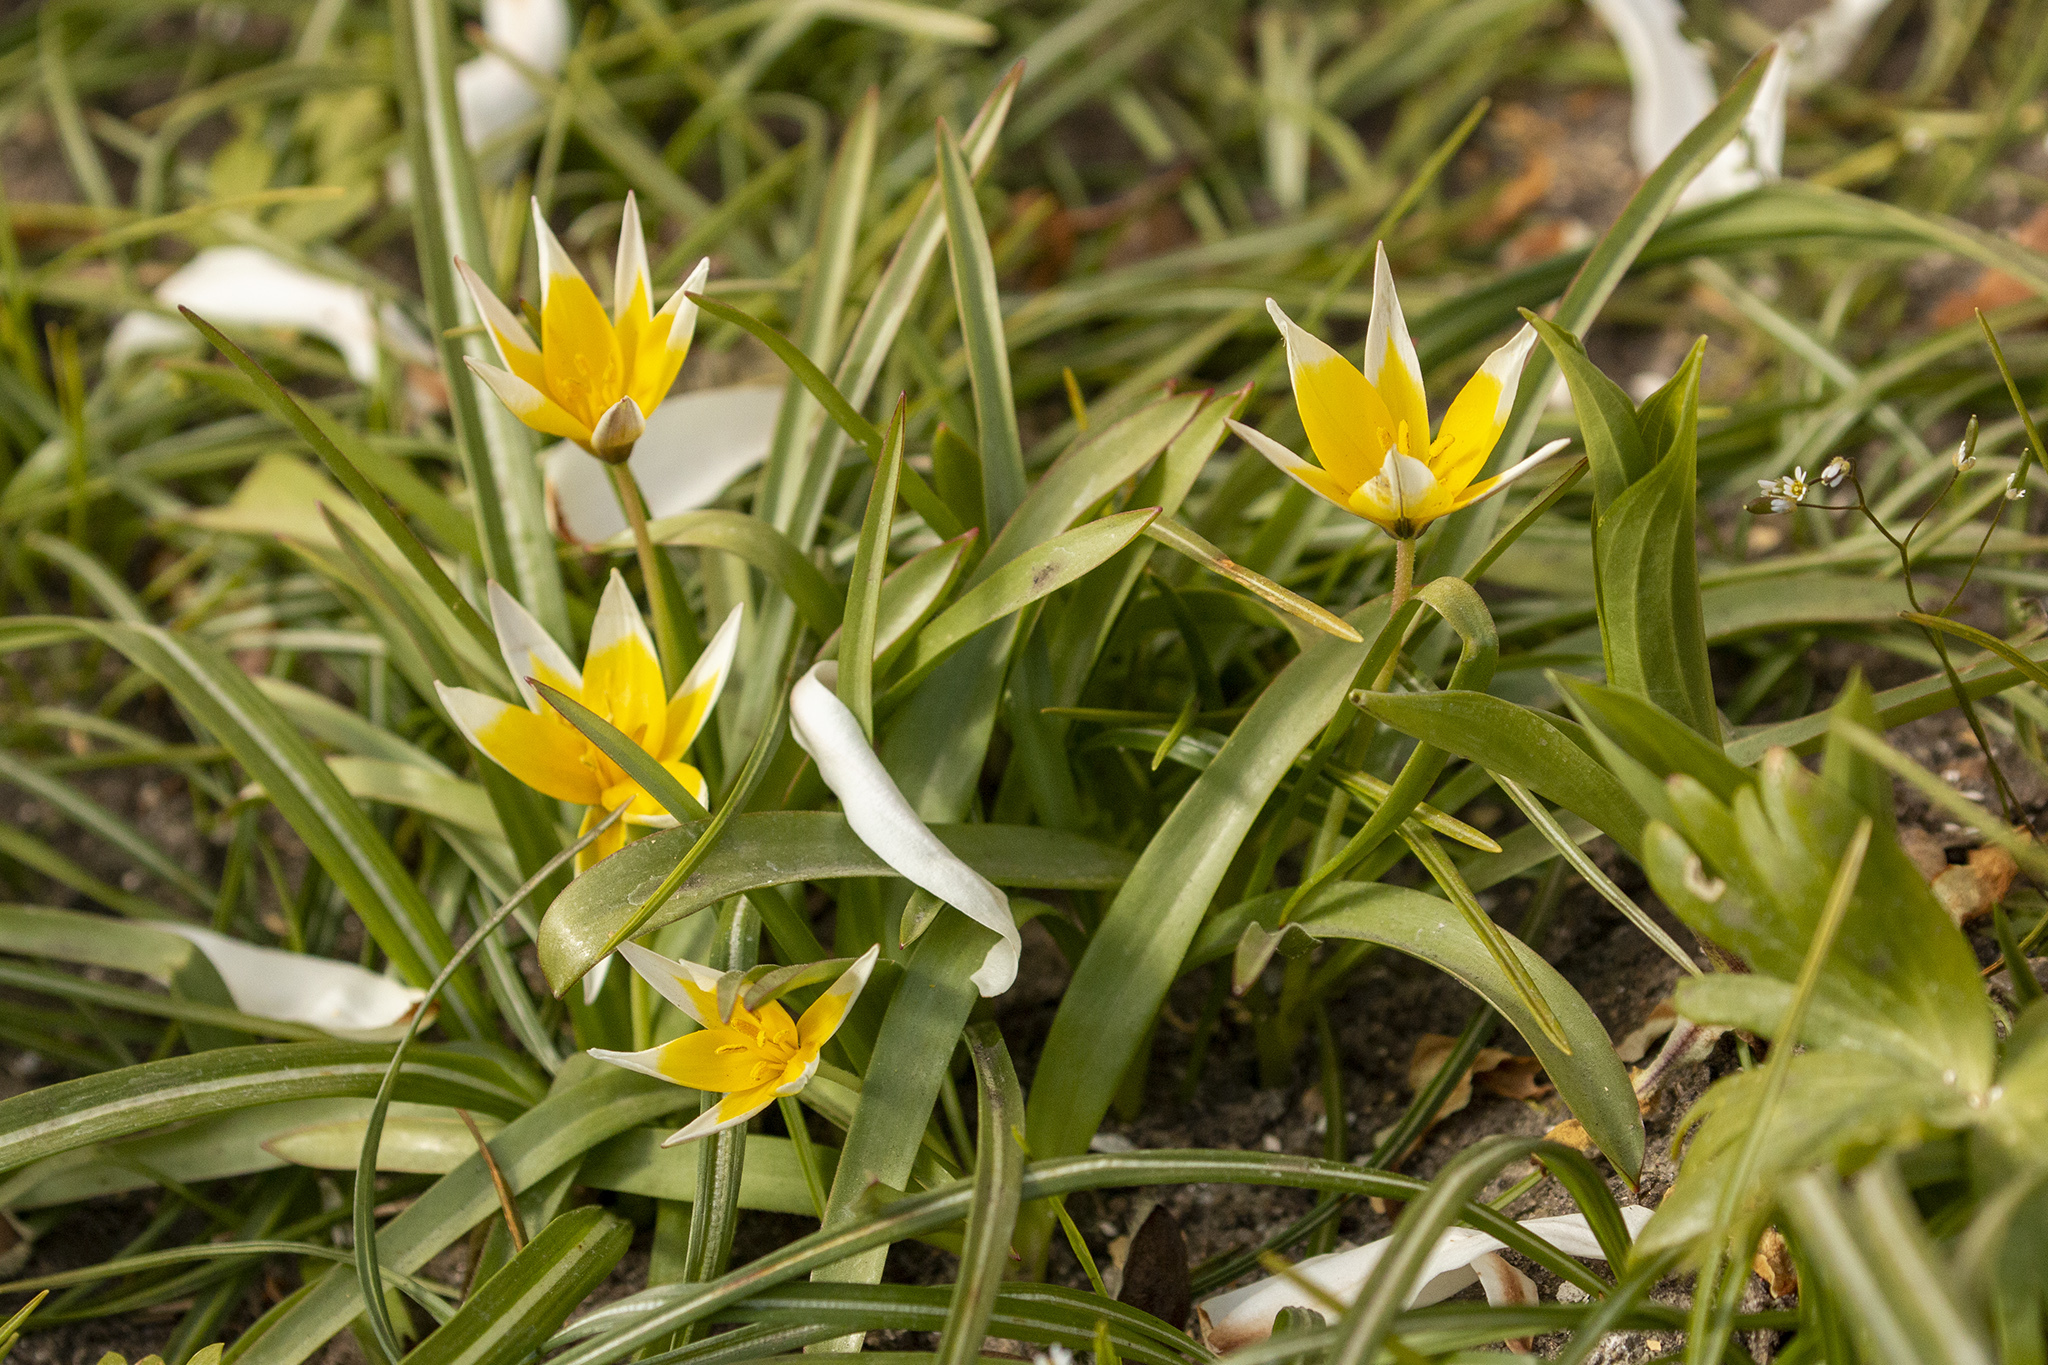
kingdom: Plantae
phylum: Tracheophyta
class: Liliopsida
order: Liliales
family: Liliaceae
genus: Tulipa
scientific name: Tulipa urumiensis
